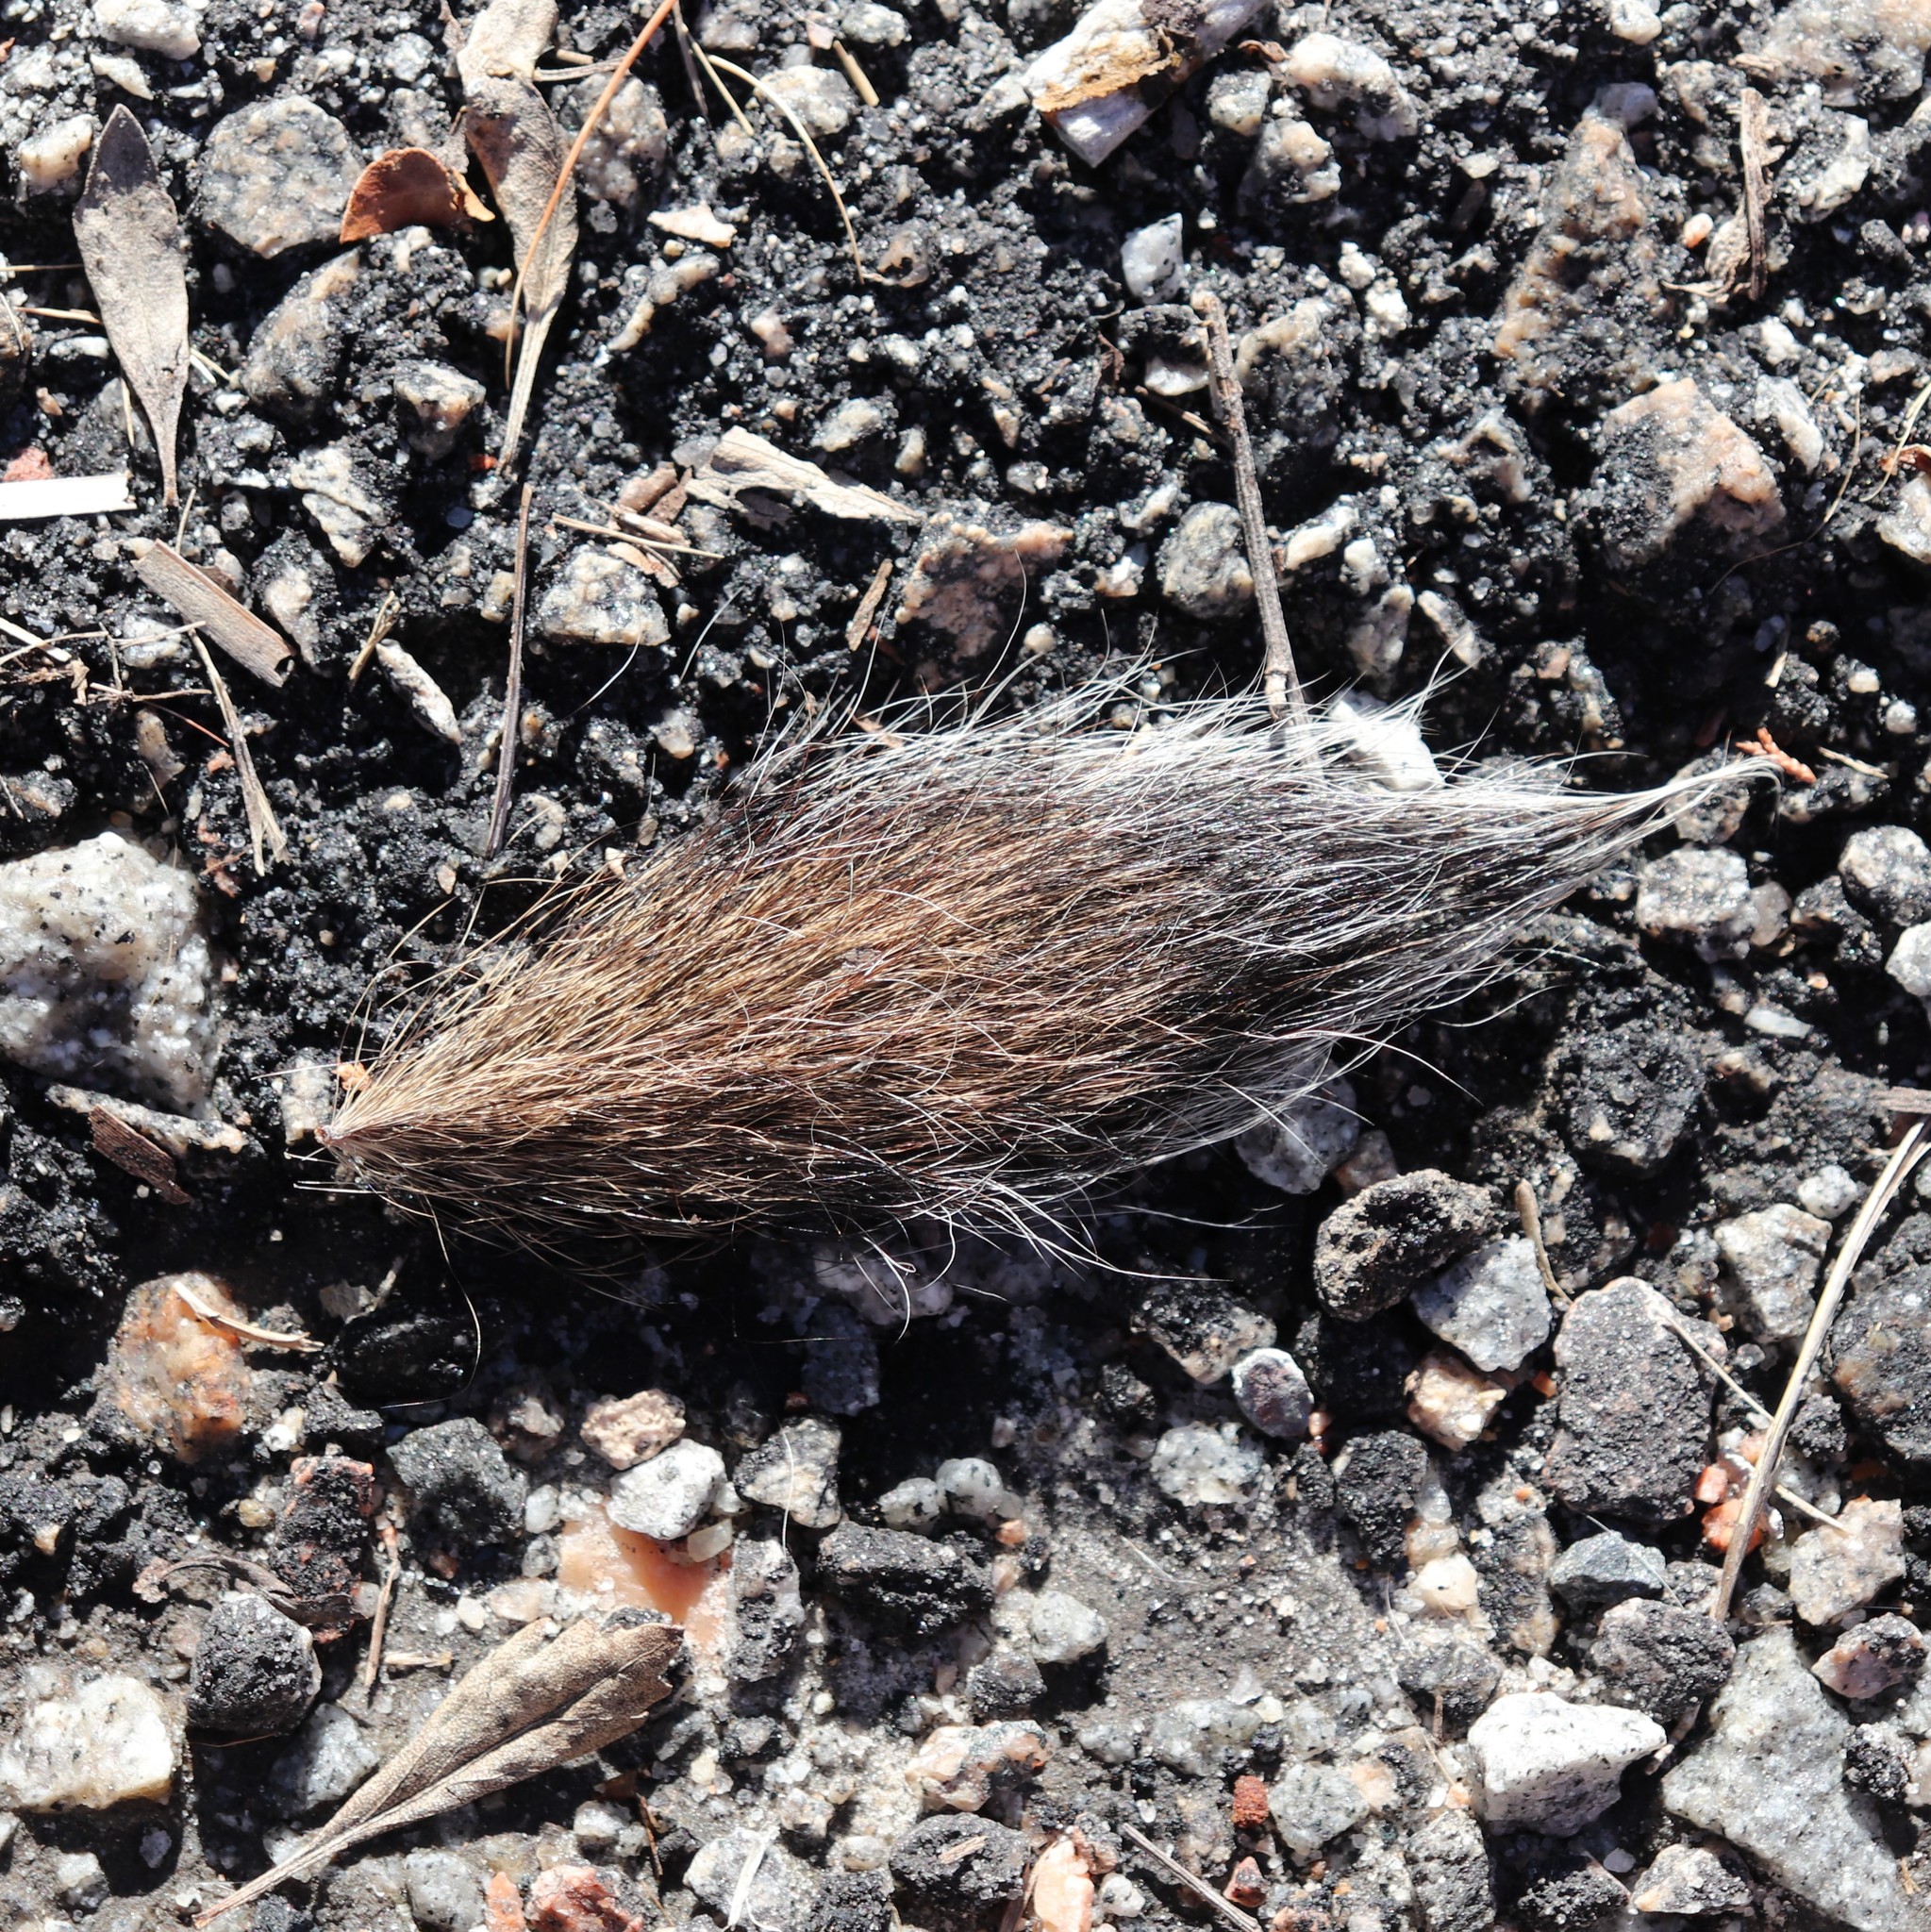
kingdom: Animalia
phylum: Chordata
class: Mammalia
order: Rodentia
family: Sciuridae
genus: Sciurus
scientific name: Sciurus carolinensis
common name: Eastern gray squirrel
